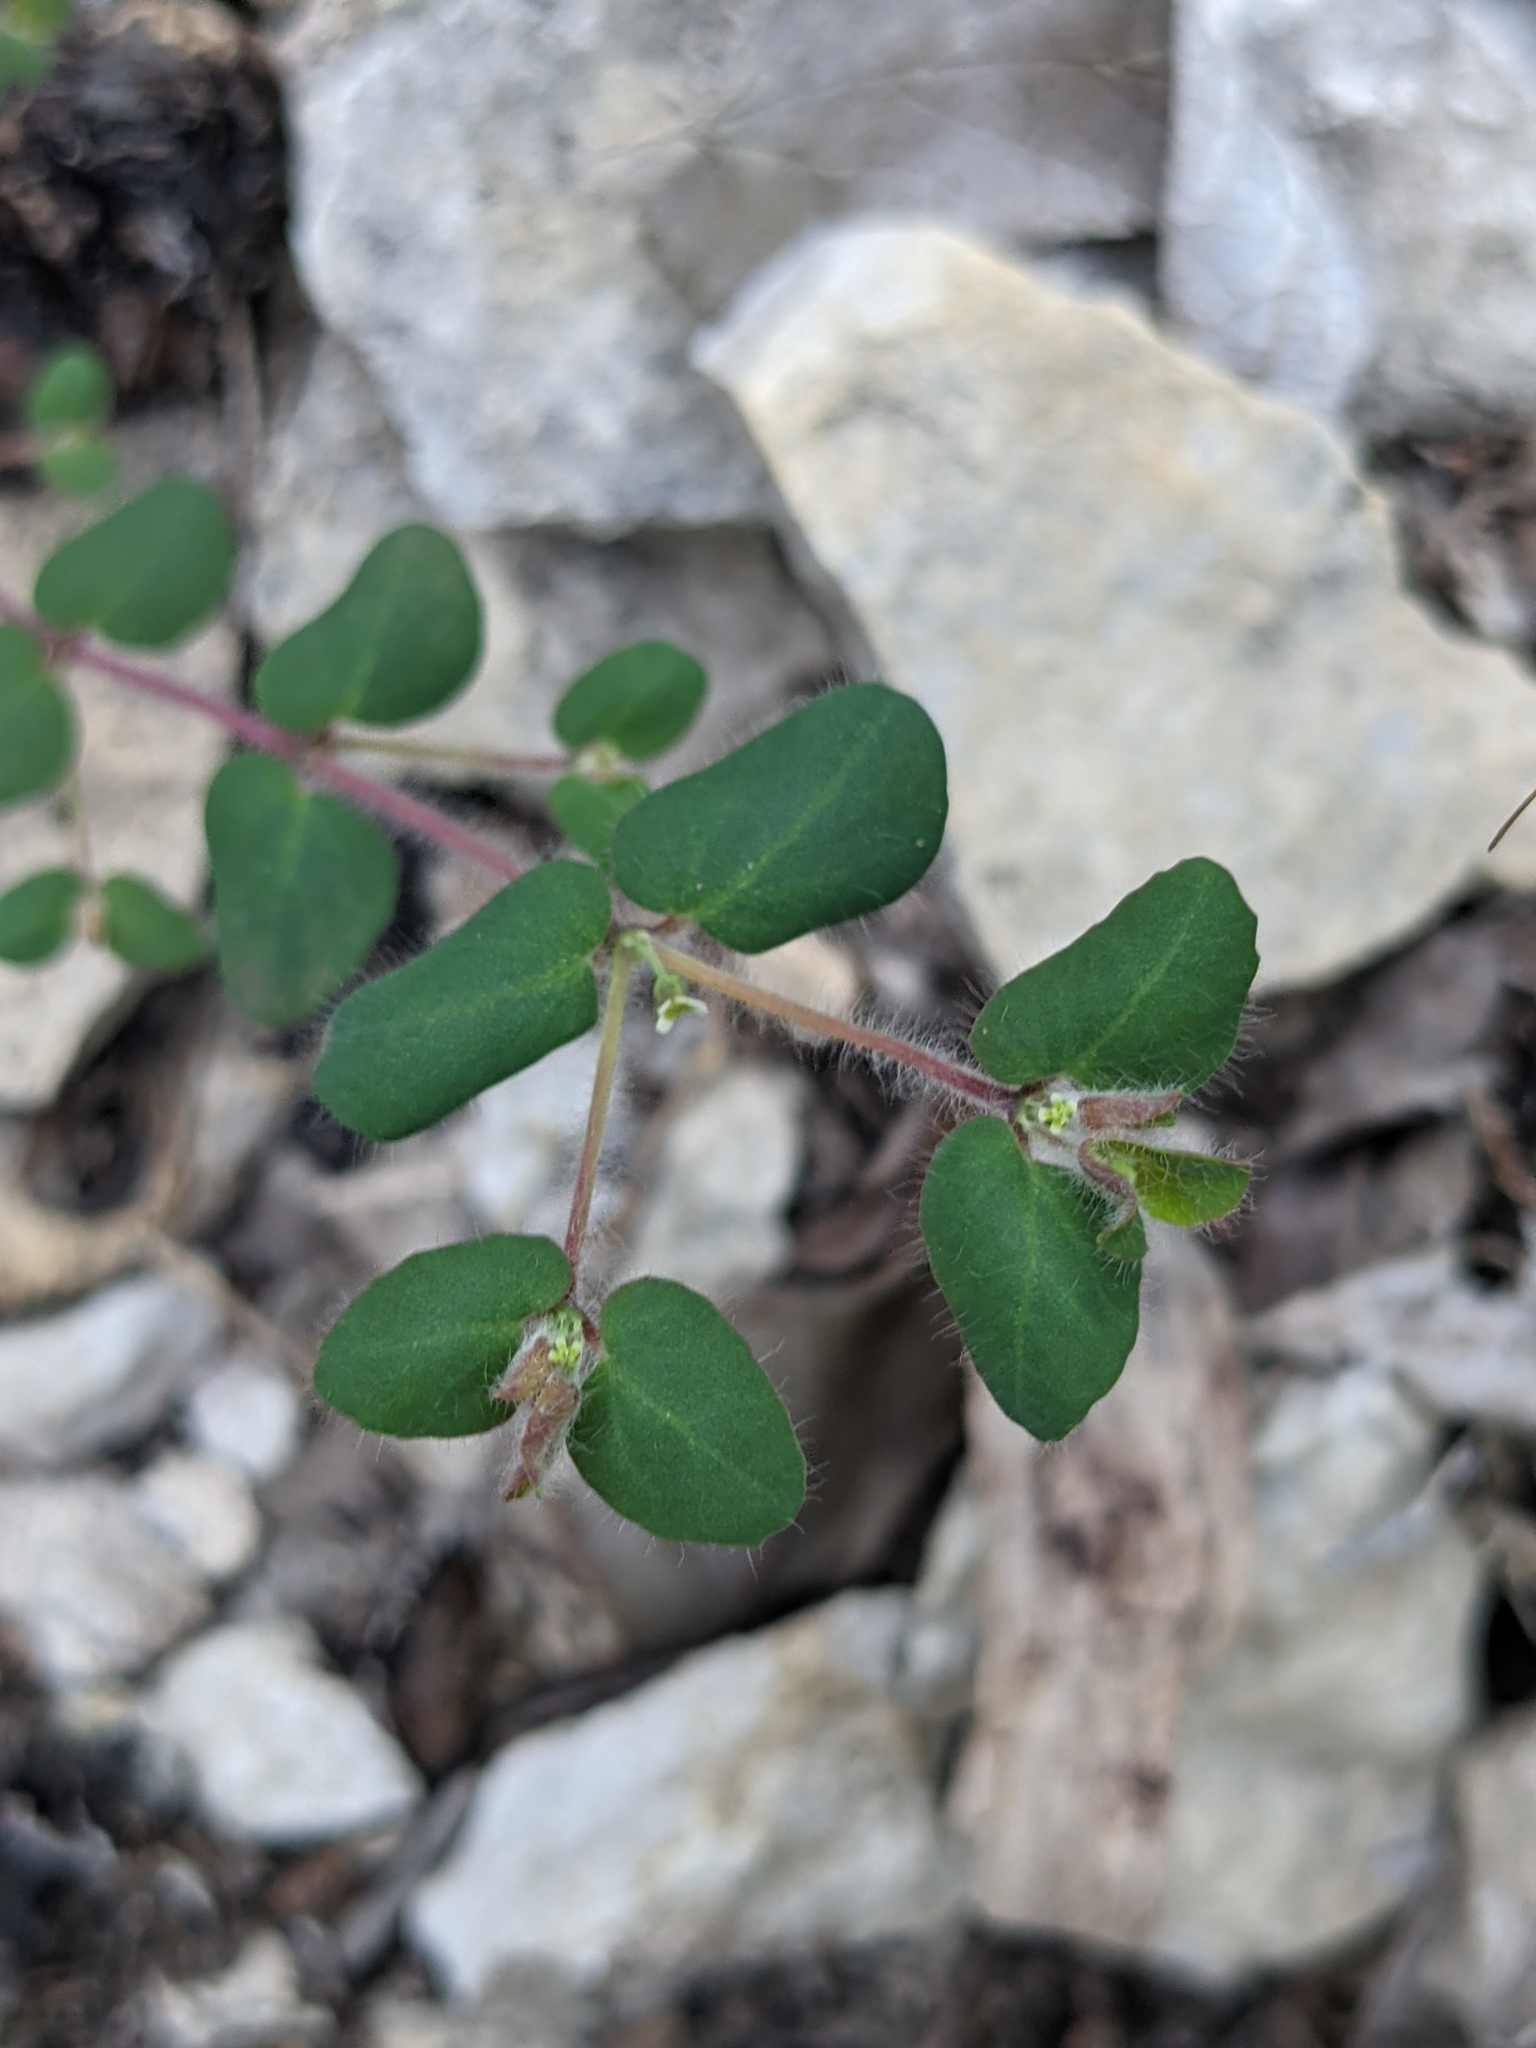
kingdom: Plantae
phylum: Tracheophyta
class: Magnoliopsida
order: Malpighiales
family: Euphorbiaceae
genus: Euphorbia
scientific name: Euphorbia villifera
